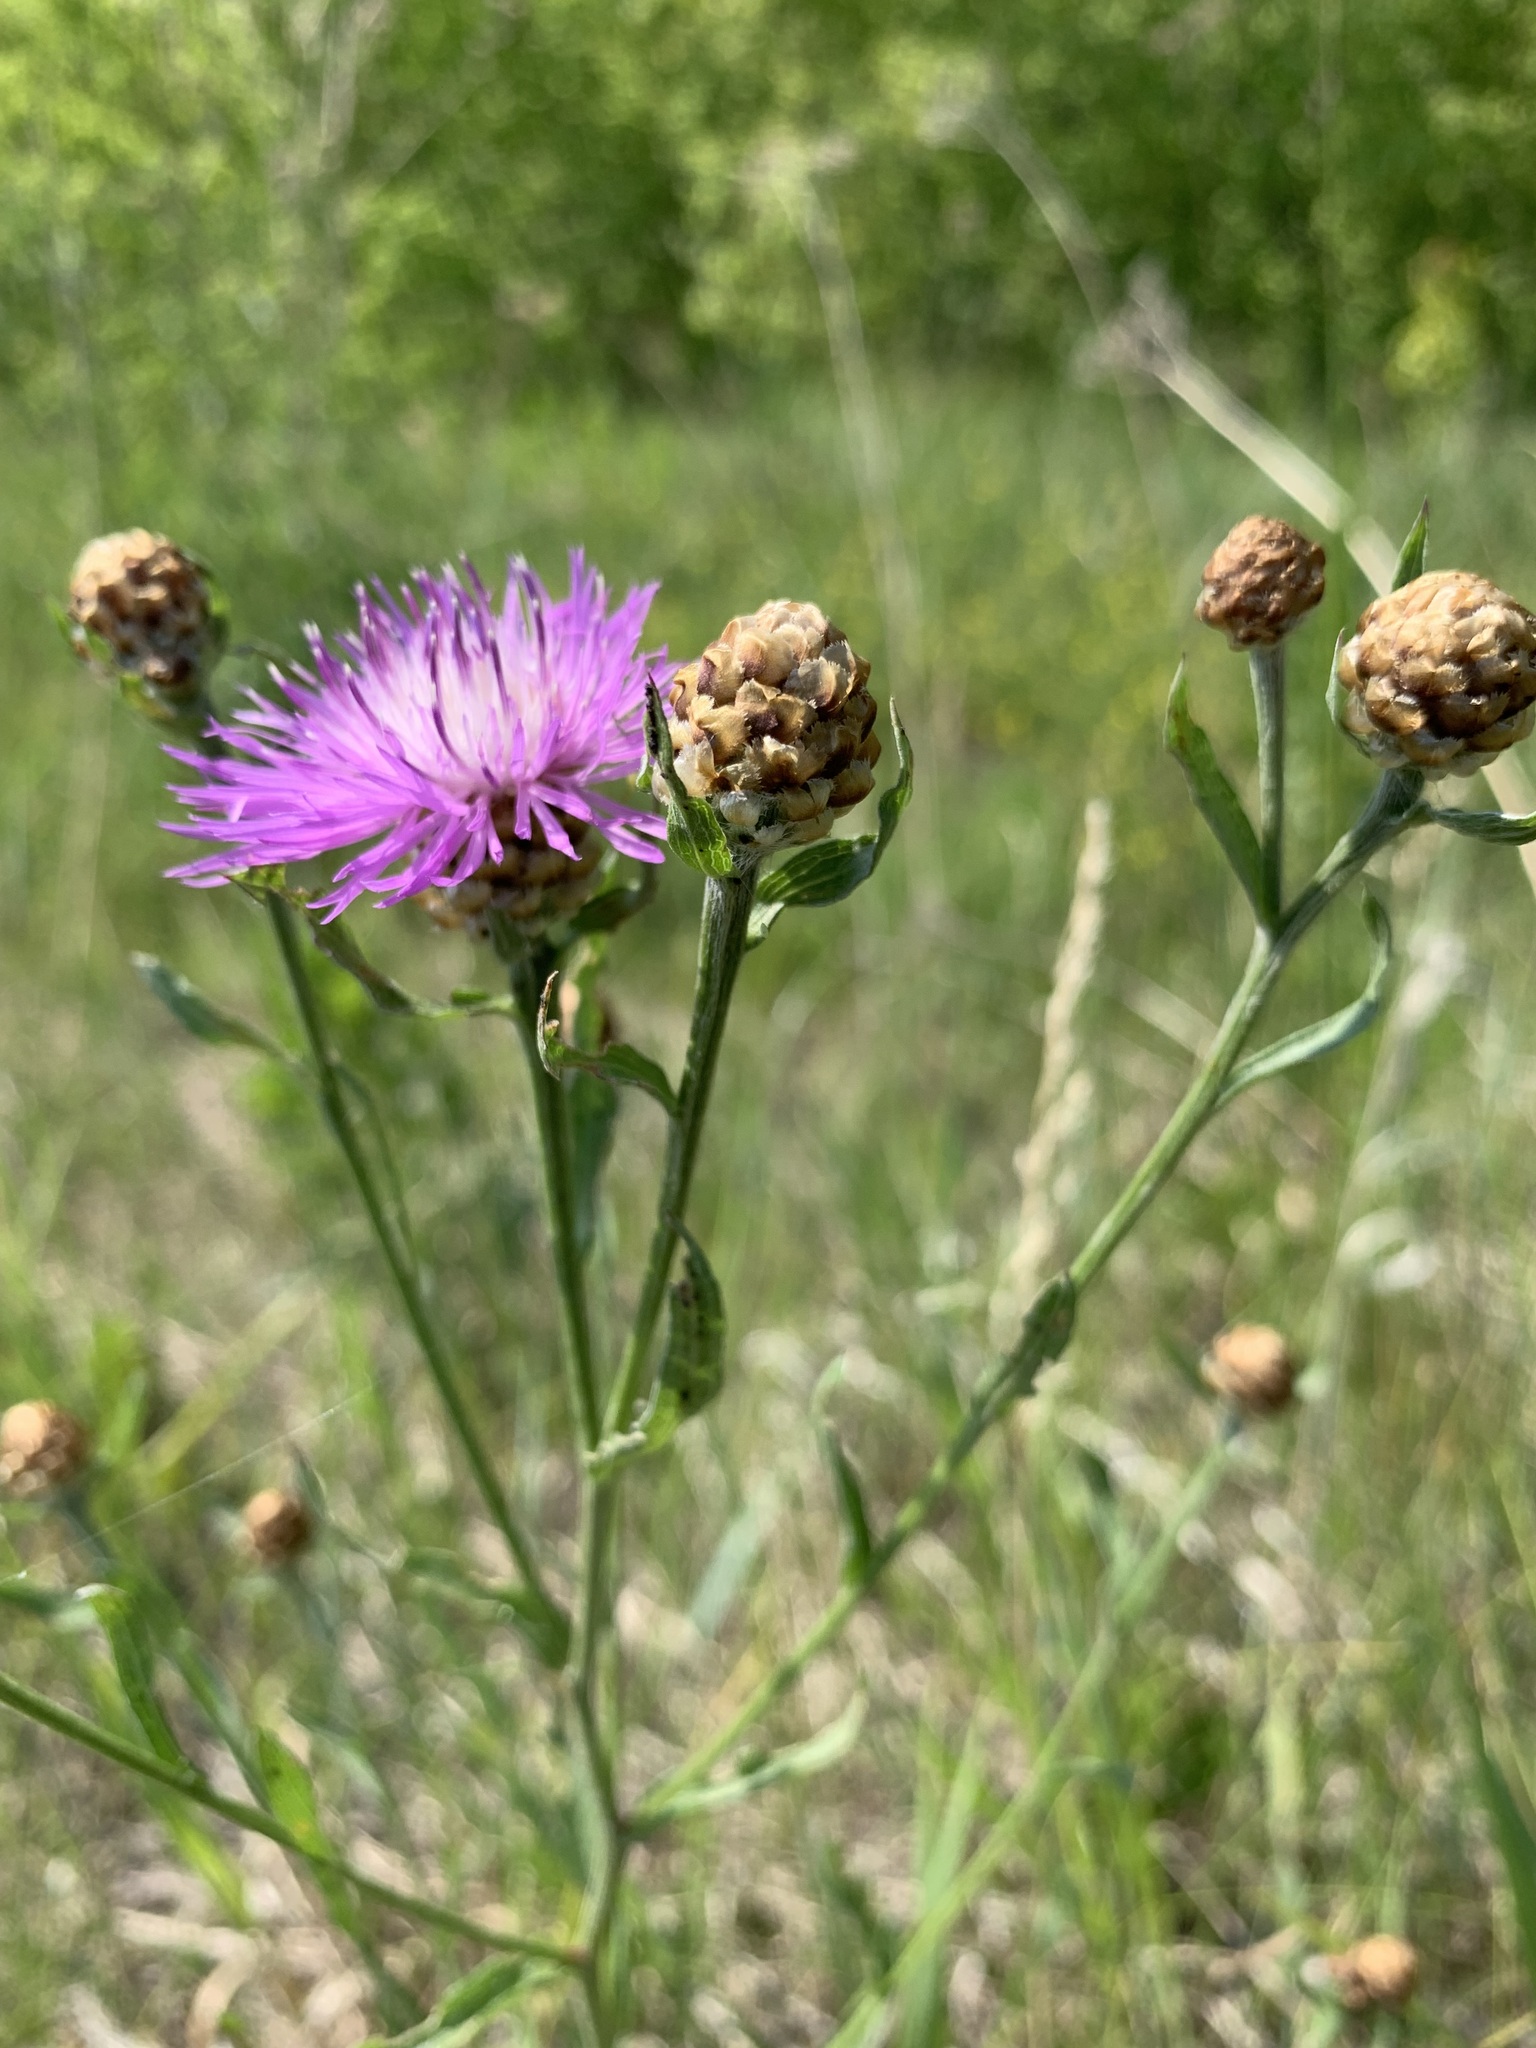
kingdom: Plantae
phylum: Tracheophyta
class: Magnoliopsida
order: Asterales
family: Asteraceae
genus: Centaurea
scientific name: Centaurea jacea
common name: Brown knapweed
